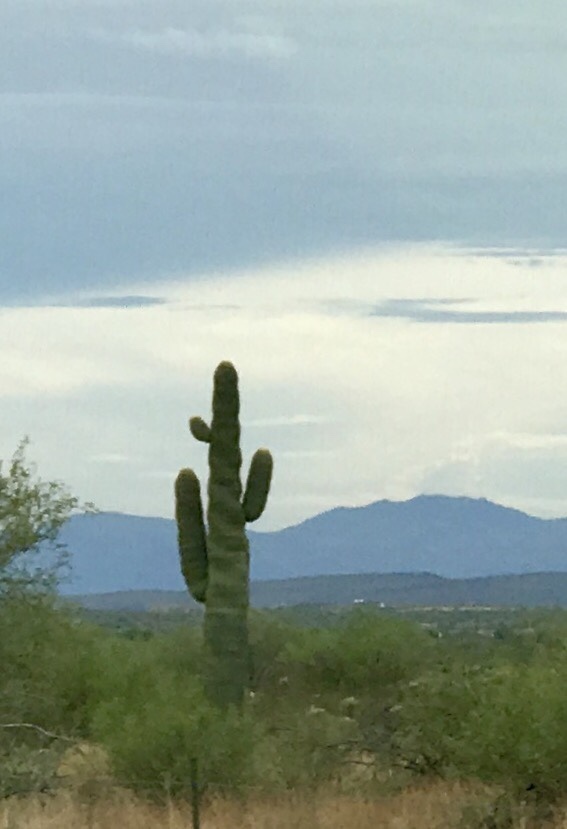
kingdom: Plantae
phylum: Tracheophyta
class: Magnoliopsida
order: Caryophyllales
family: Cactaceae
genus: Carnegiea
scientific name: Carnegiea gigantea
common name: Saguaro
